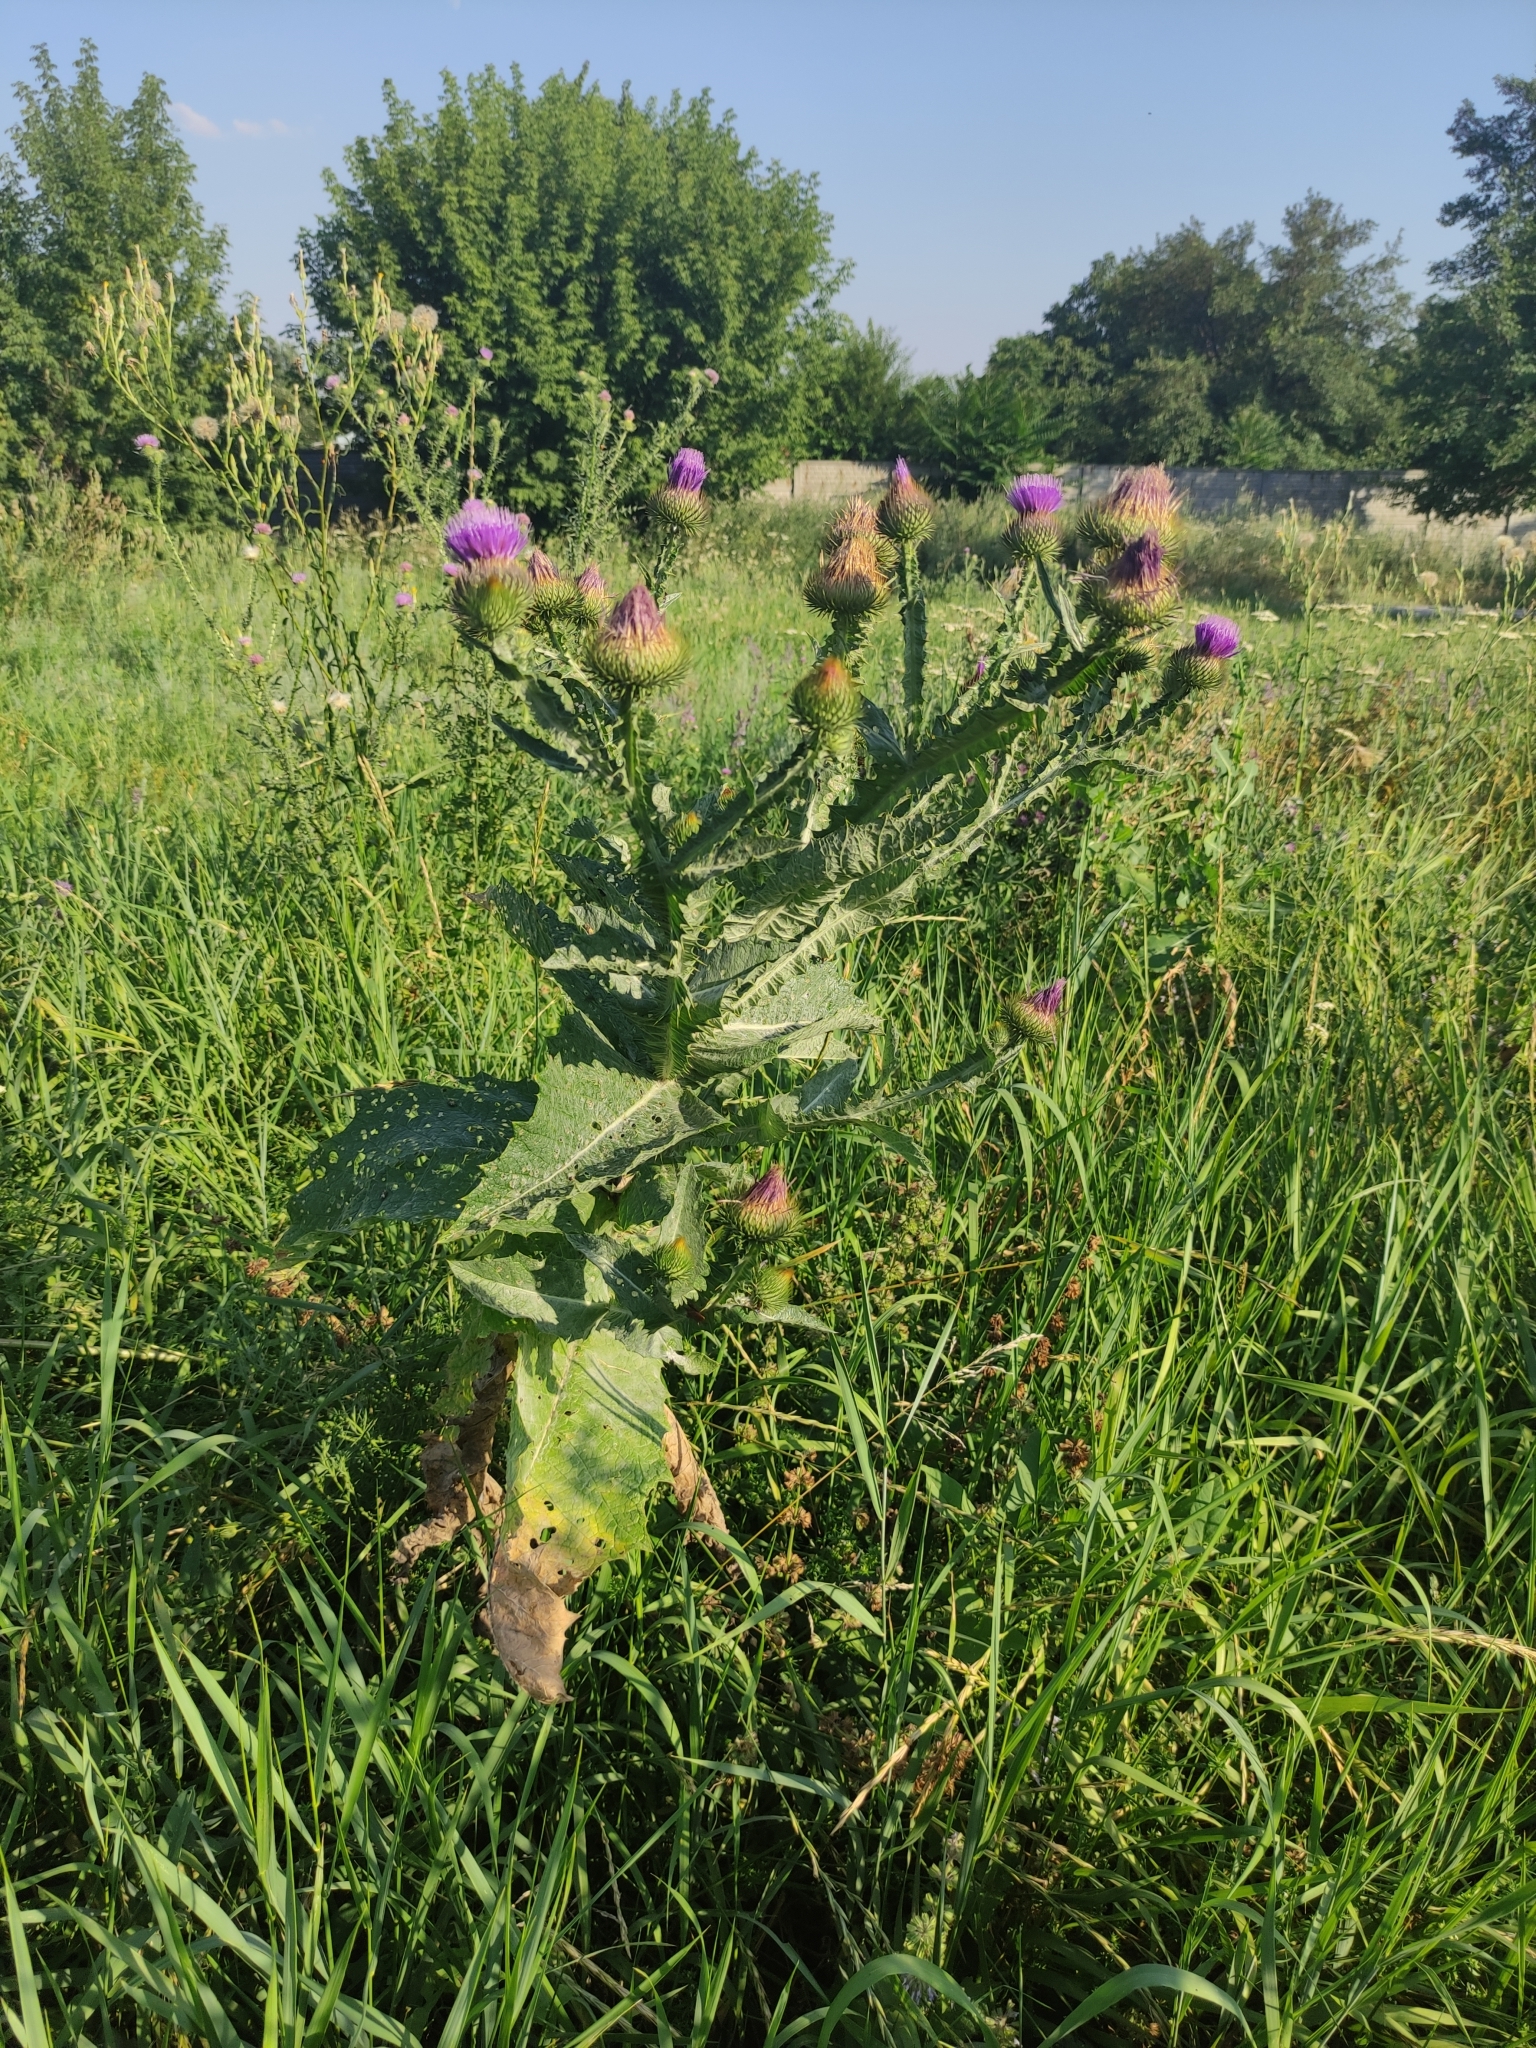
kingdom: Plantae
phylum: Tracheophyta
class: Magnoliopsida
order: Asterales
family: Asteraceae
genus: Onopordum
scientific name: Onopordum acanthium
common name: Scotch thistle
